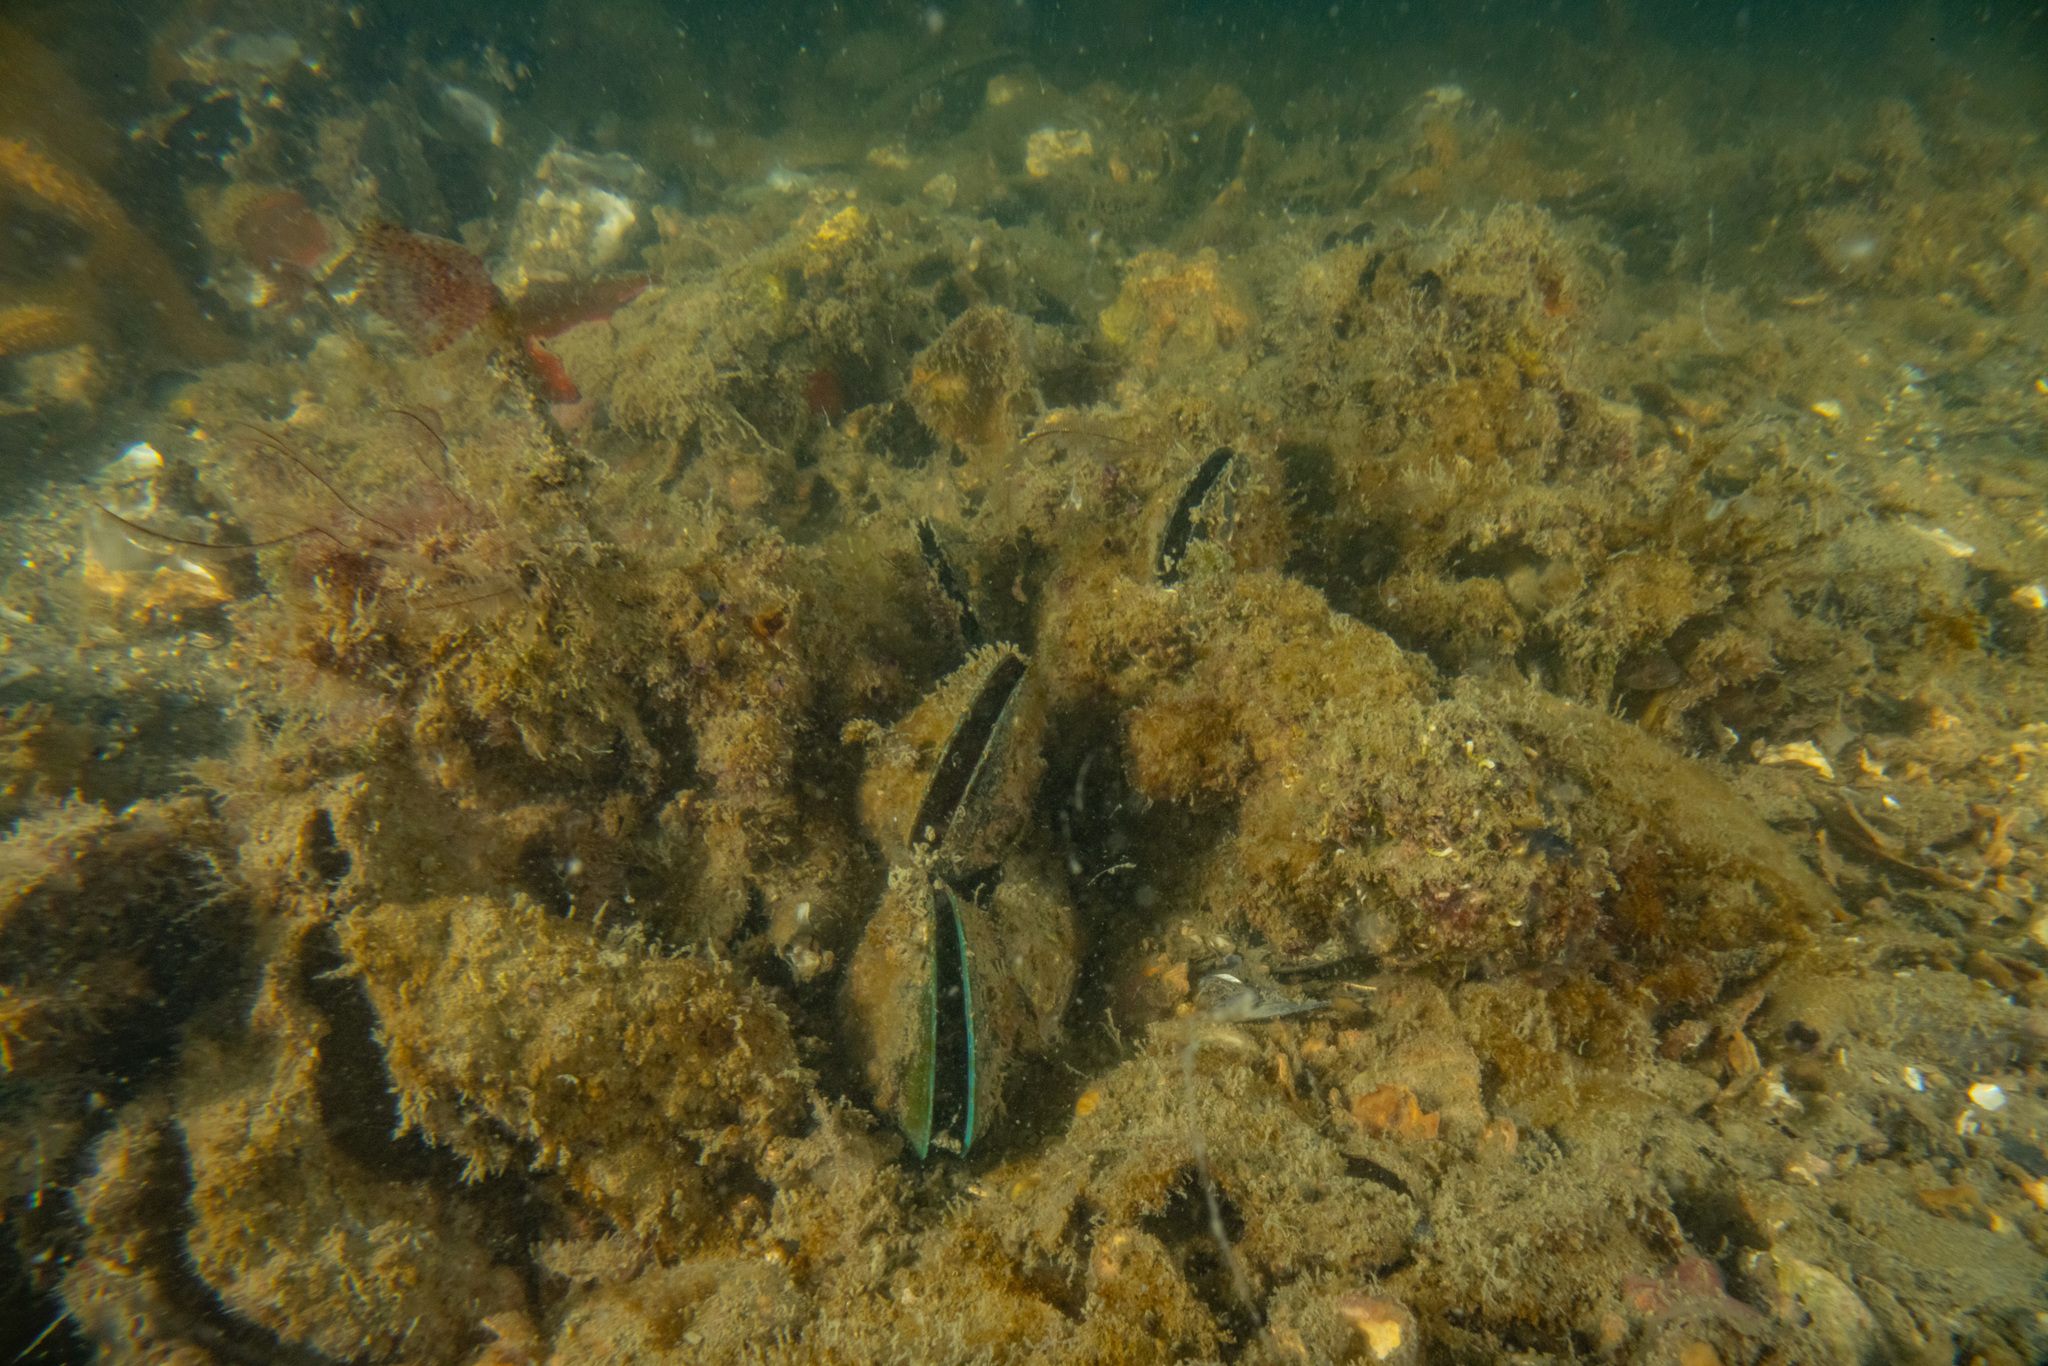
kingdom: Animalia
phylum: Mollusca
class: Bivalvia
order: Mytilida
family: Mytilidae
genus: Perna
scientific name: Perna canaliculus
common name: New zealand greenshelltm
